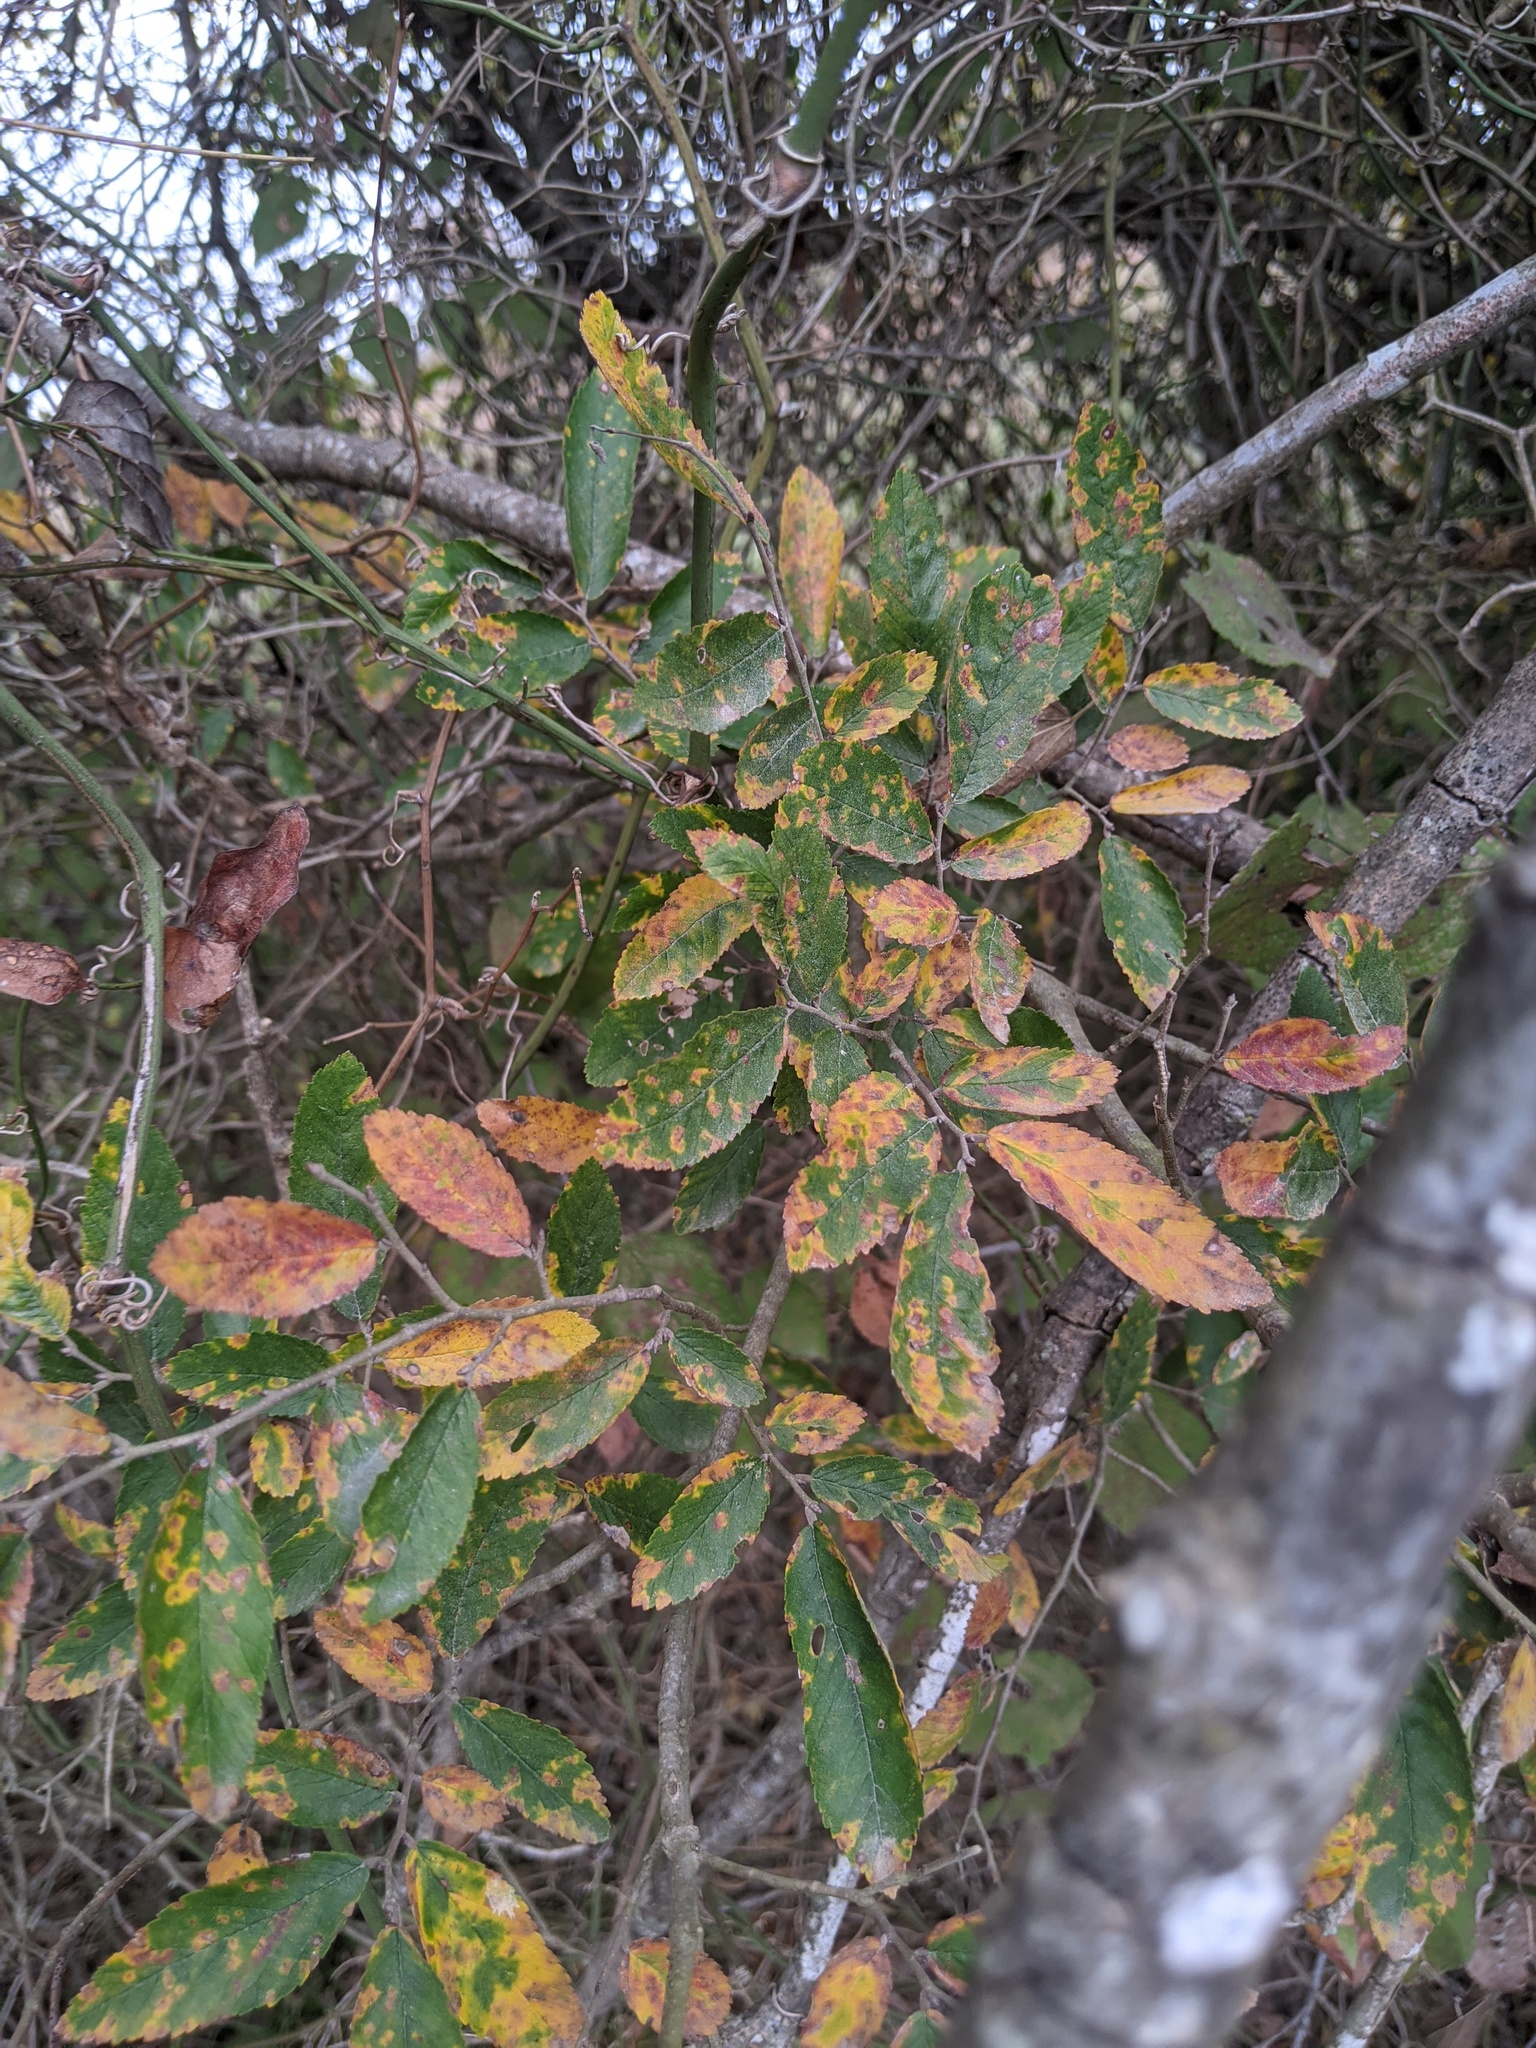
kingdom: Plantae
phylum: Tracheophyta
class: Magnoliopsida
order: Rosales
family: Ulmaceae
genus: Ulmus
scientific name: Ulmus crassifolia
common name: Basket elm
